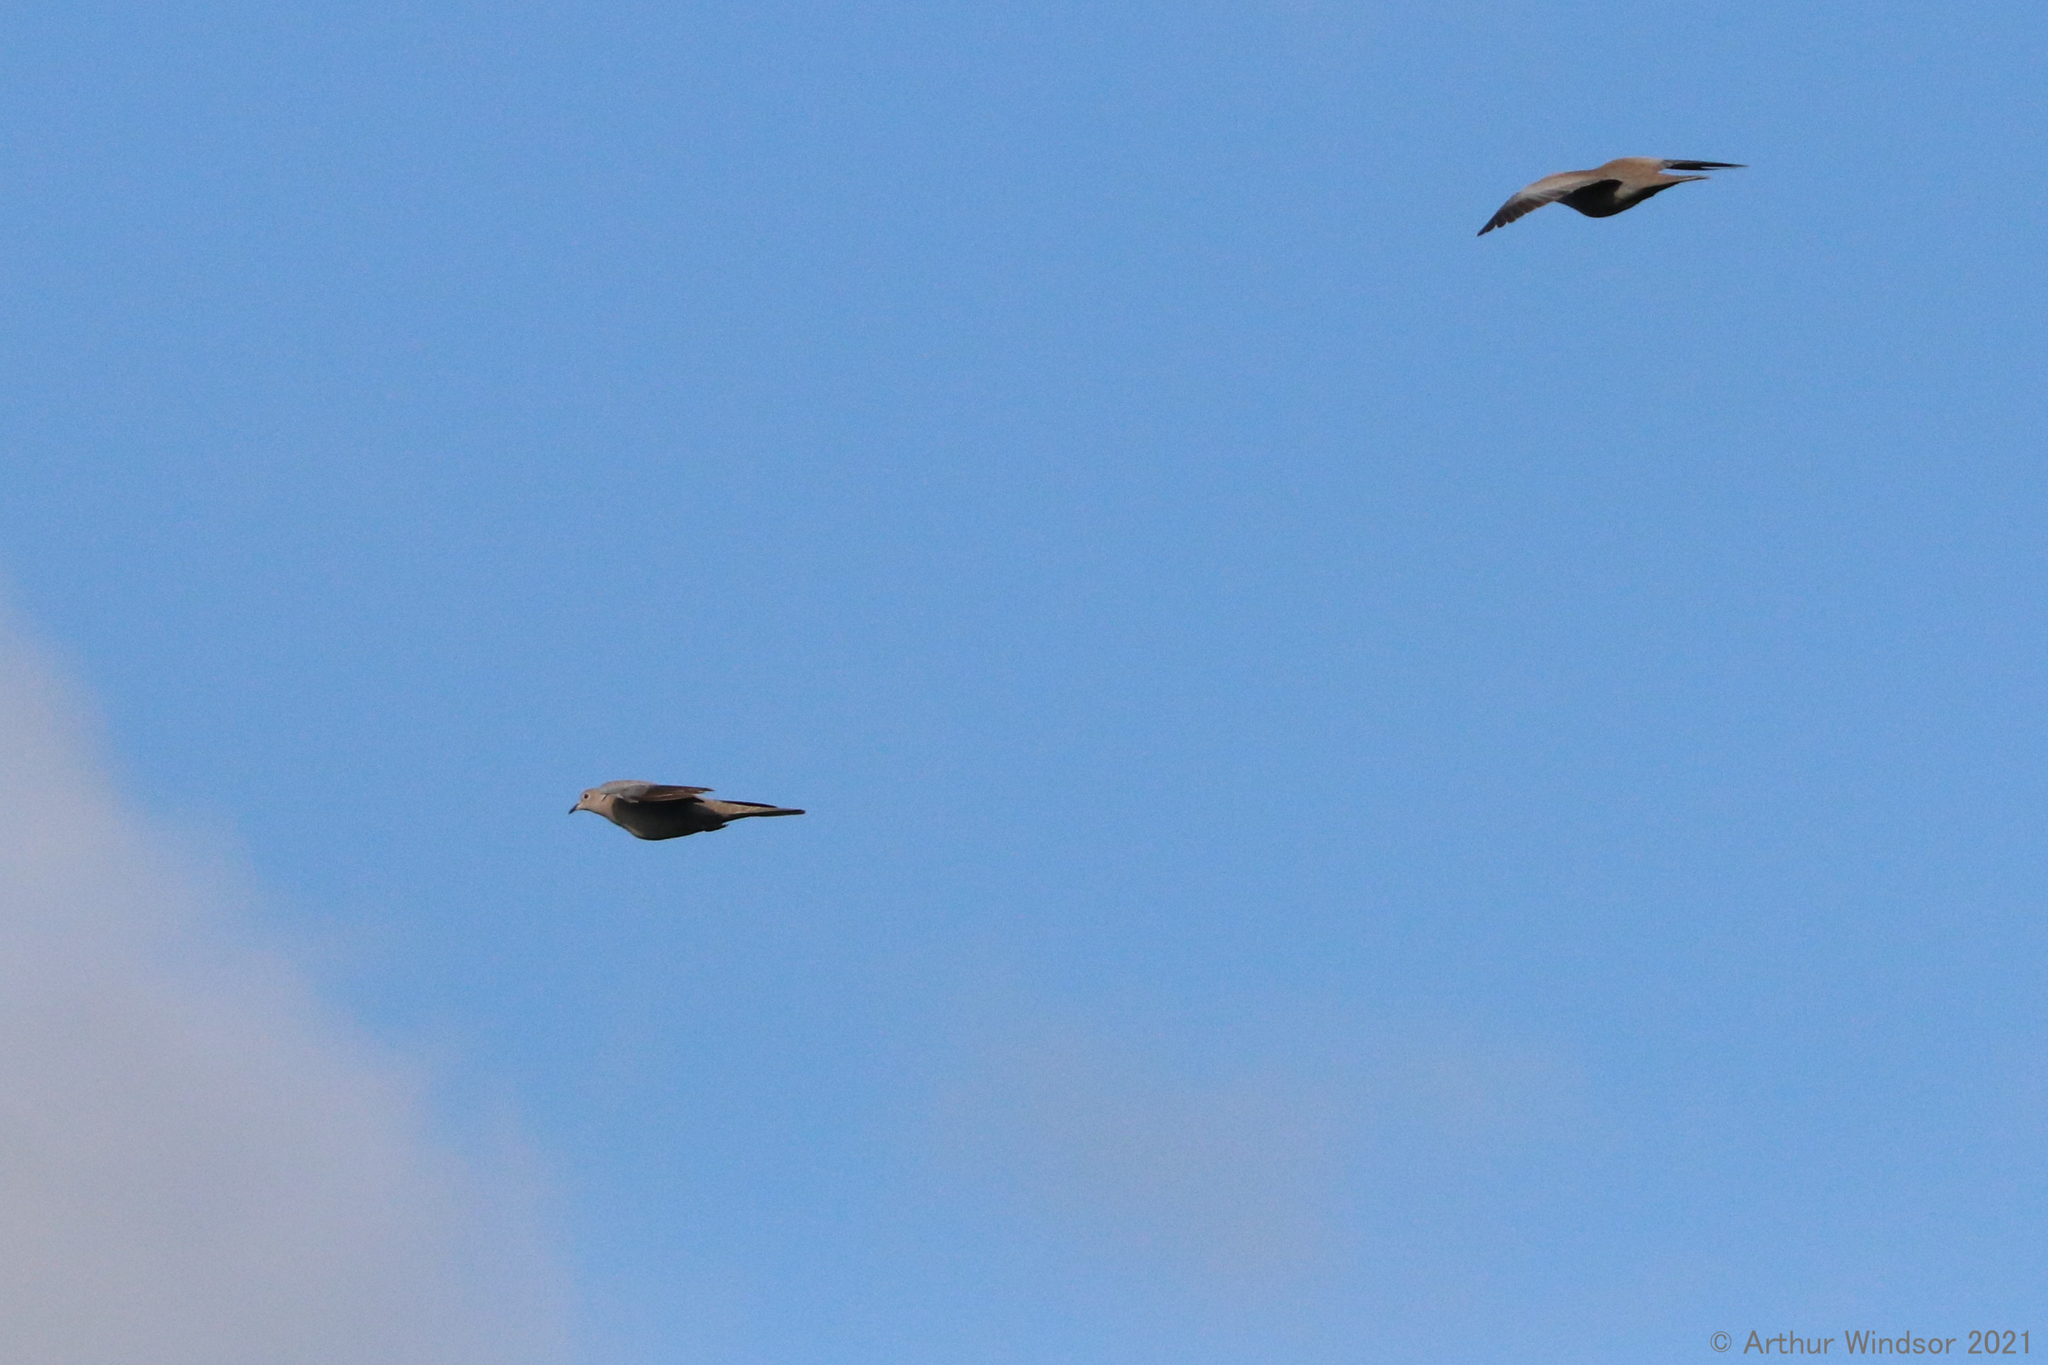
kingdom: Animalia
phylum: Chordata
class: Aves
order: Columbiformes
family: Columbidae
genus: Streptopelia
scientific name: Streptopelia decaocto
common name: Eurasian collared dove
